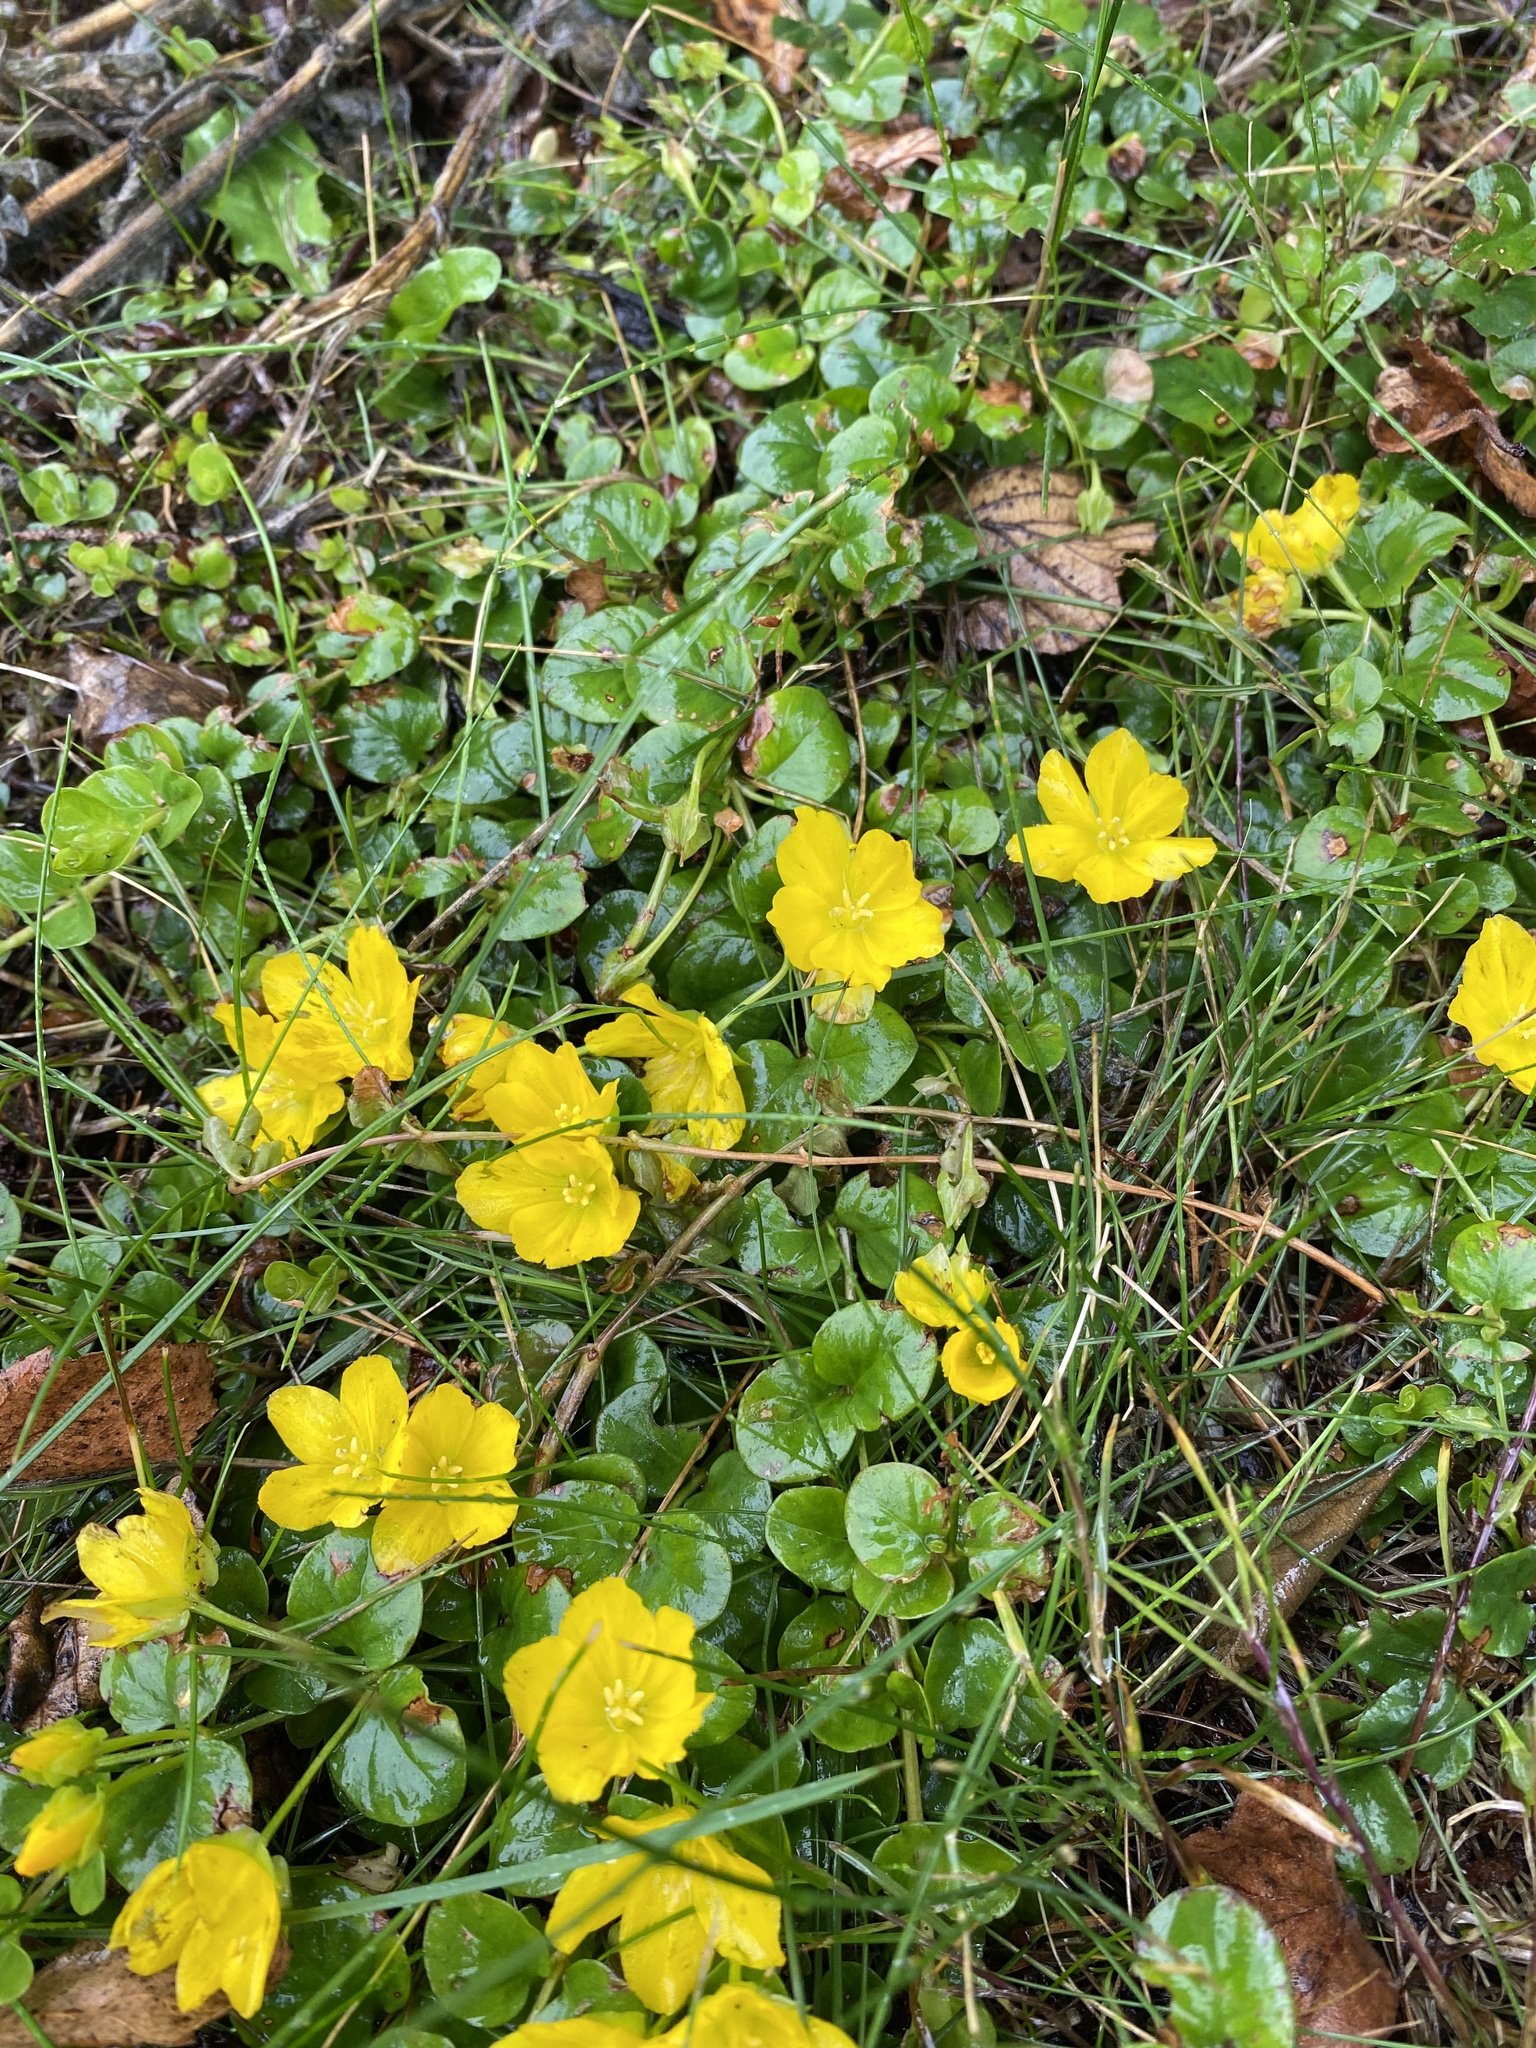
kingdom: Plantae
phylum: Tracheophyta
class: Magnoliopsida
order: Ericales
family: Primulaceae
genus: Lysimachia
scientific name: Lysimachia nummularia
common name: Moneywort
